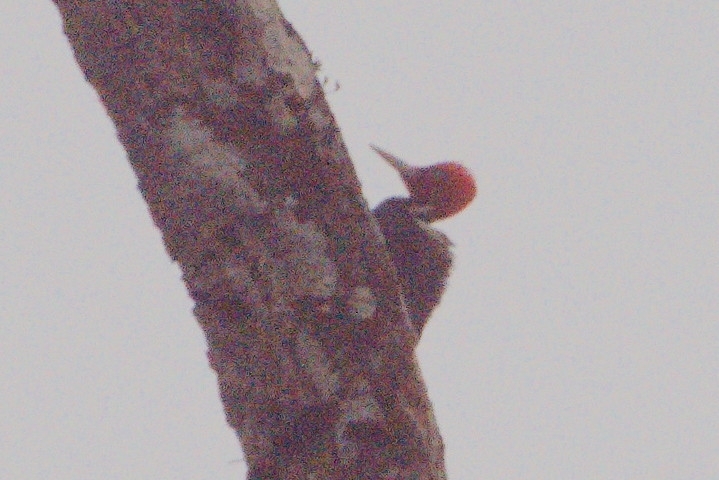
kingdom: Animalia
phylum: Chordata
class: Aves
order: Piciformes
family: Picidae
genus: Campephilus
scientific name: Campephilus guatemalensis
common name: Pale-billed woodpecker
